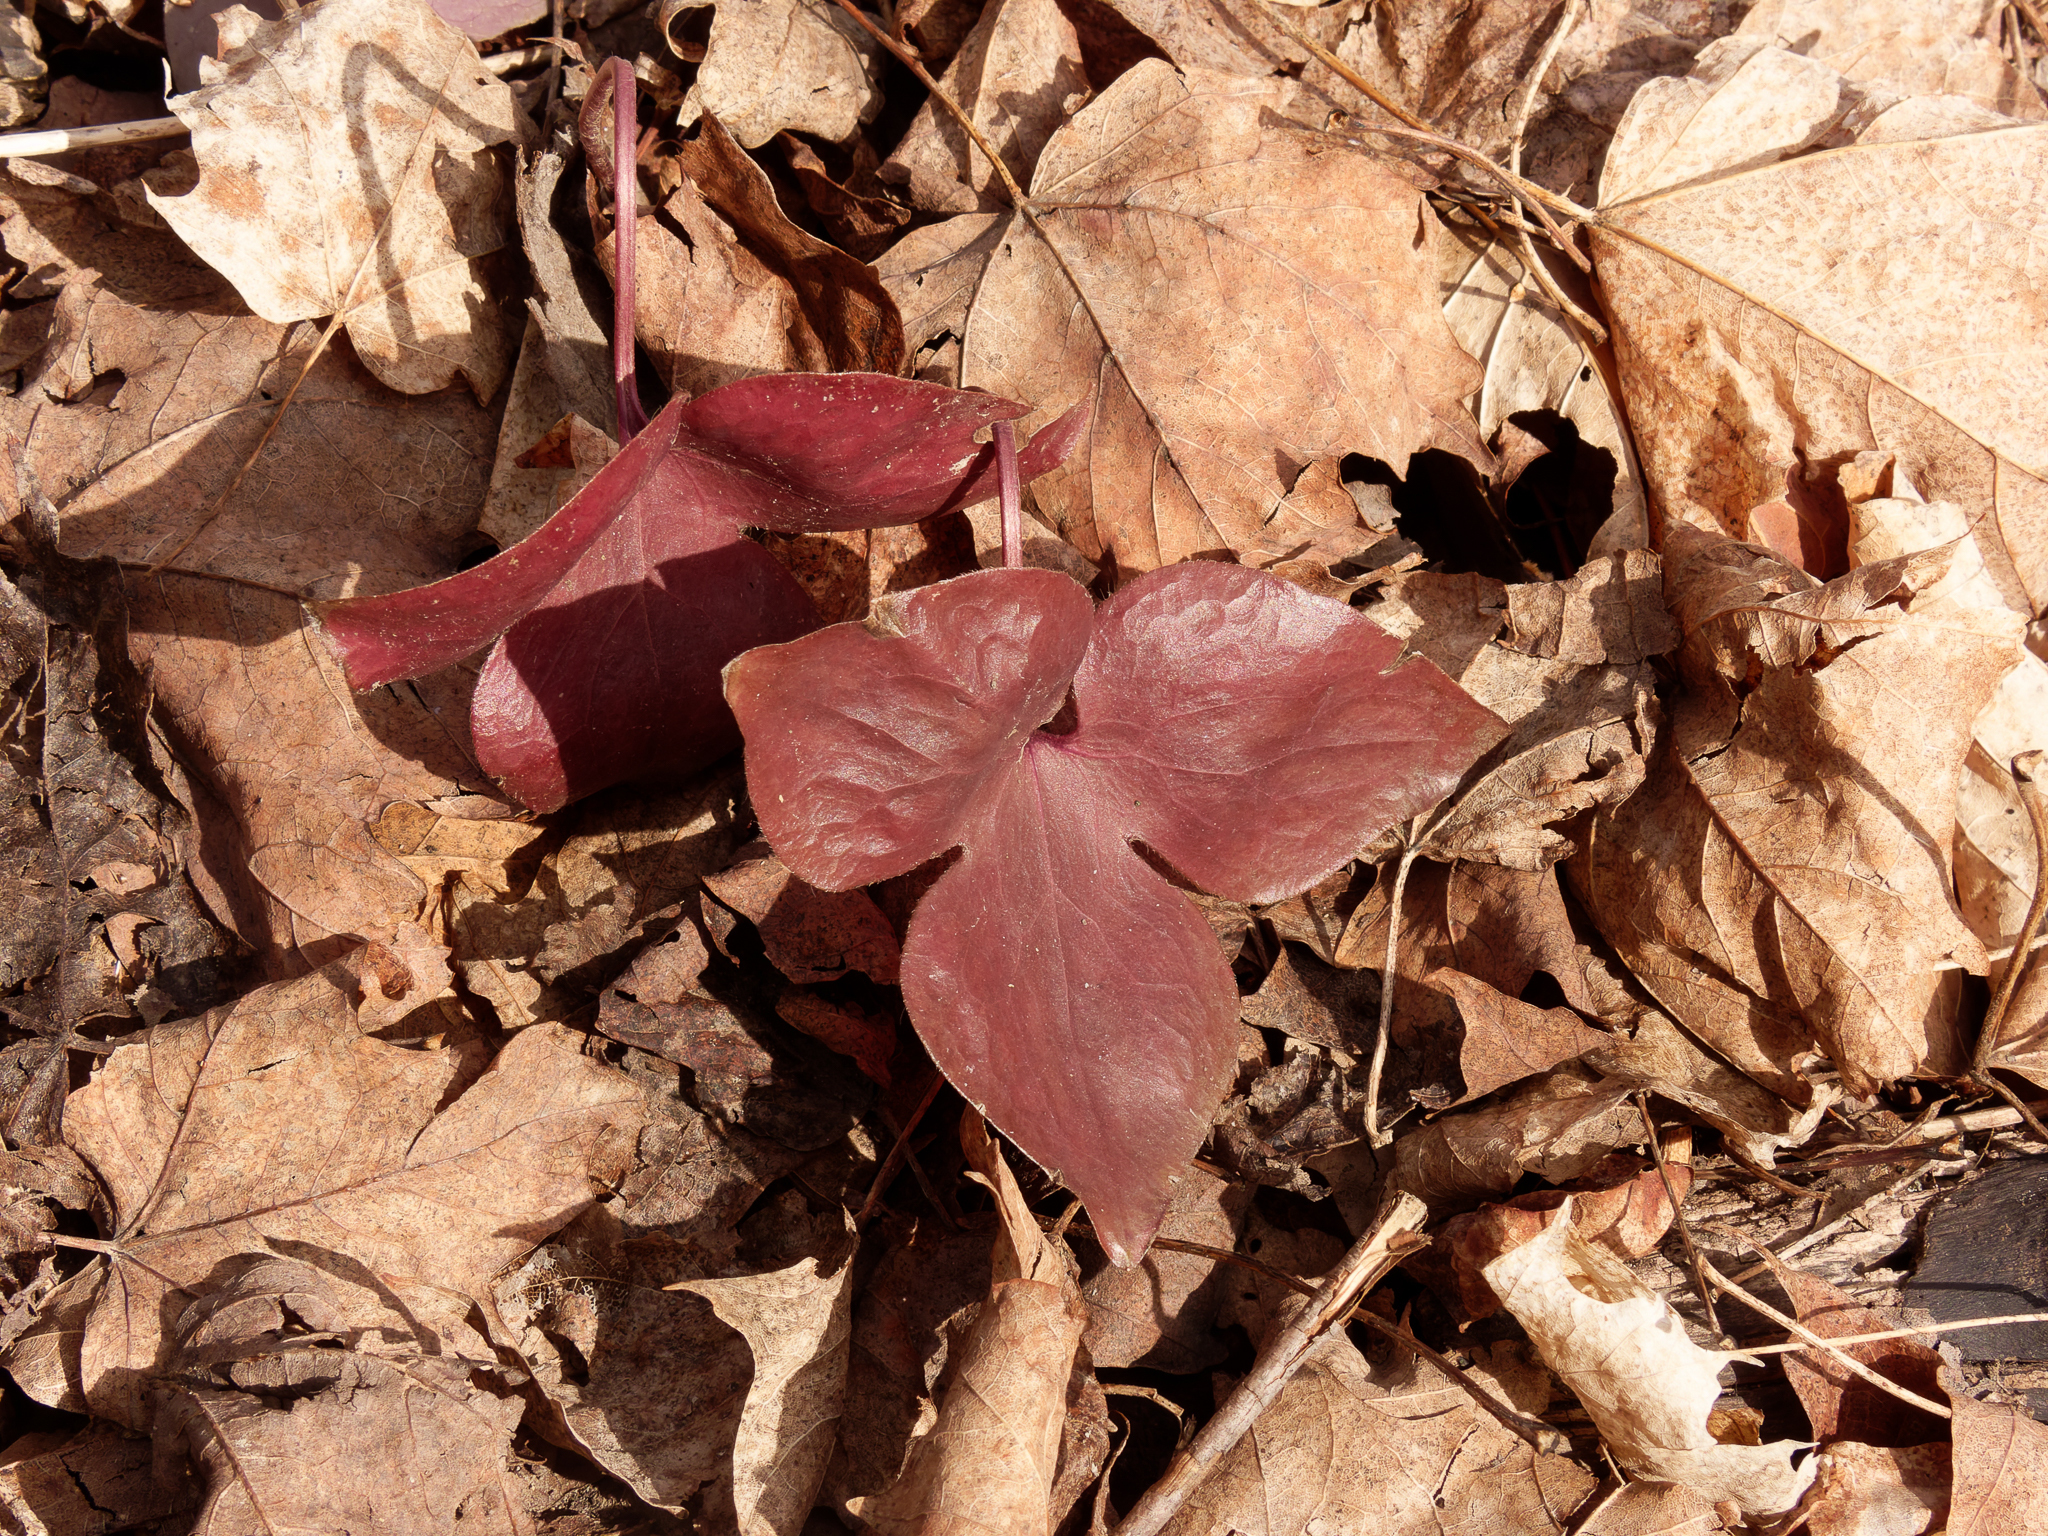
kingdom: Plantae
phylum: Tracheophyta
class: Magnoliopsida
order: Ranunculales
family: Ranunculaceae
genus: Hepatica
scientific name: Hepatica acutiloba
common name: Sharp-lobed hepatica
